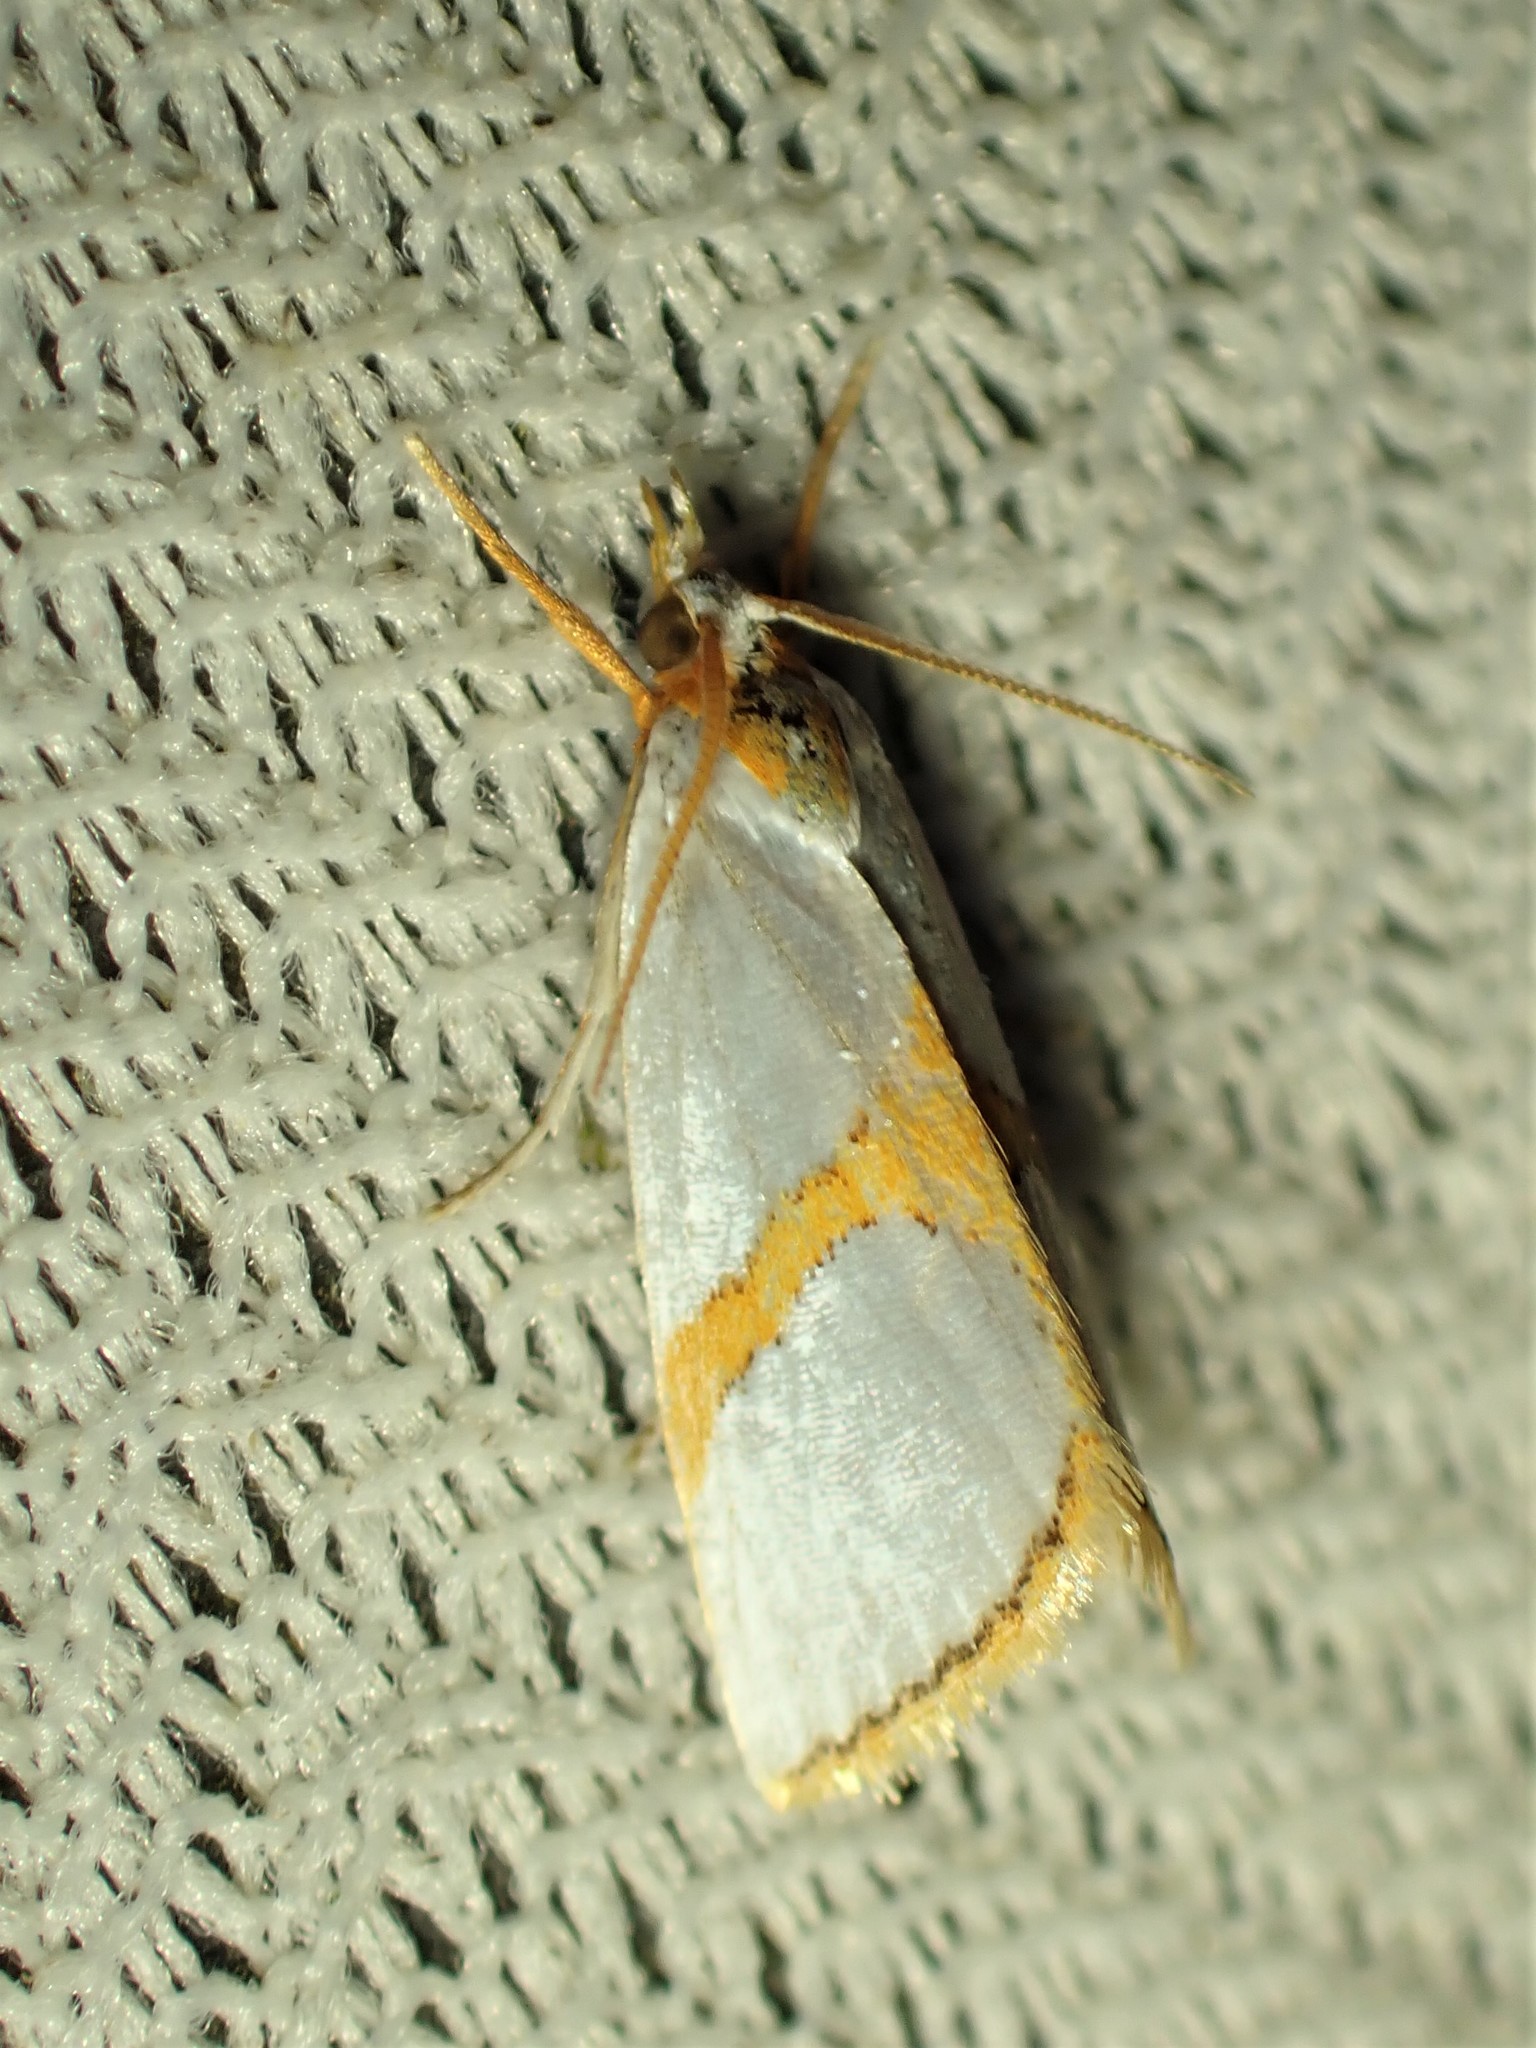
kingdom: Animalia
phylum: Arthropoda
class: Insecta
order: Lepidoptera
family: Crambidae
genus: Argyria
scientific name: Argyria auratella
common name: Curve-lined argyria moth
